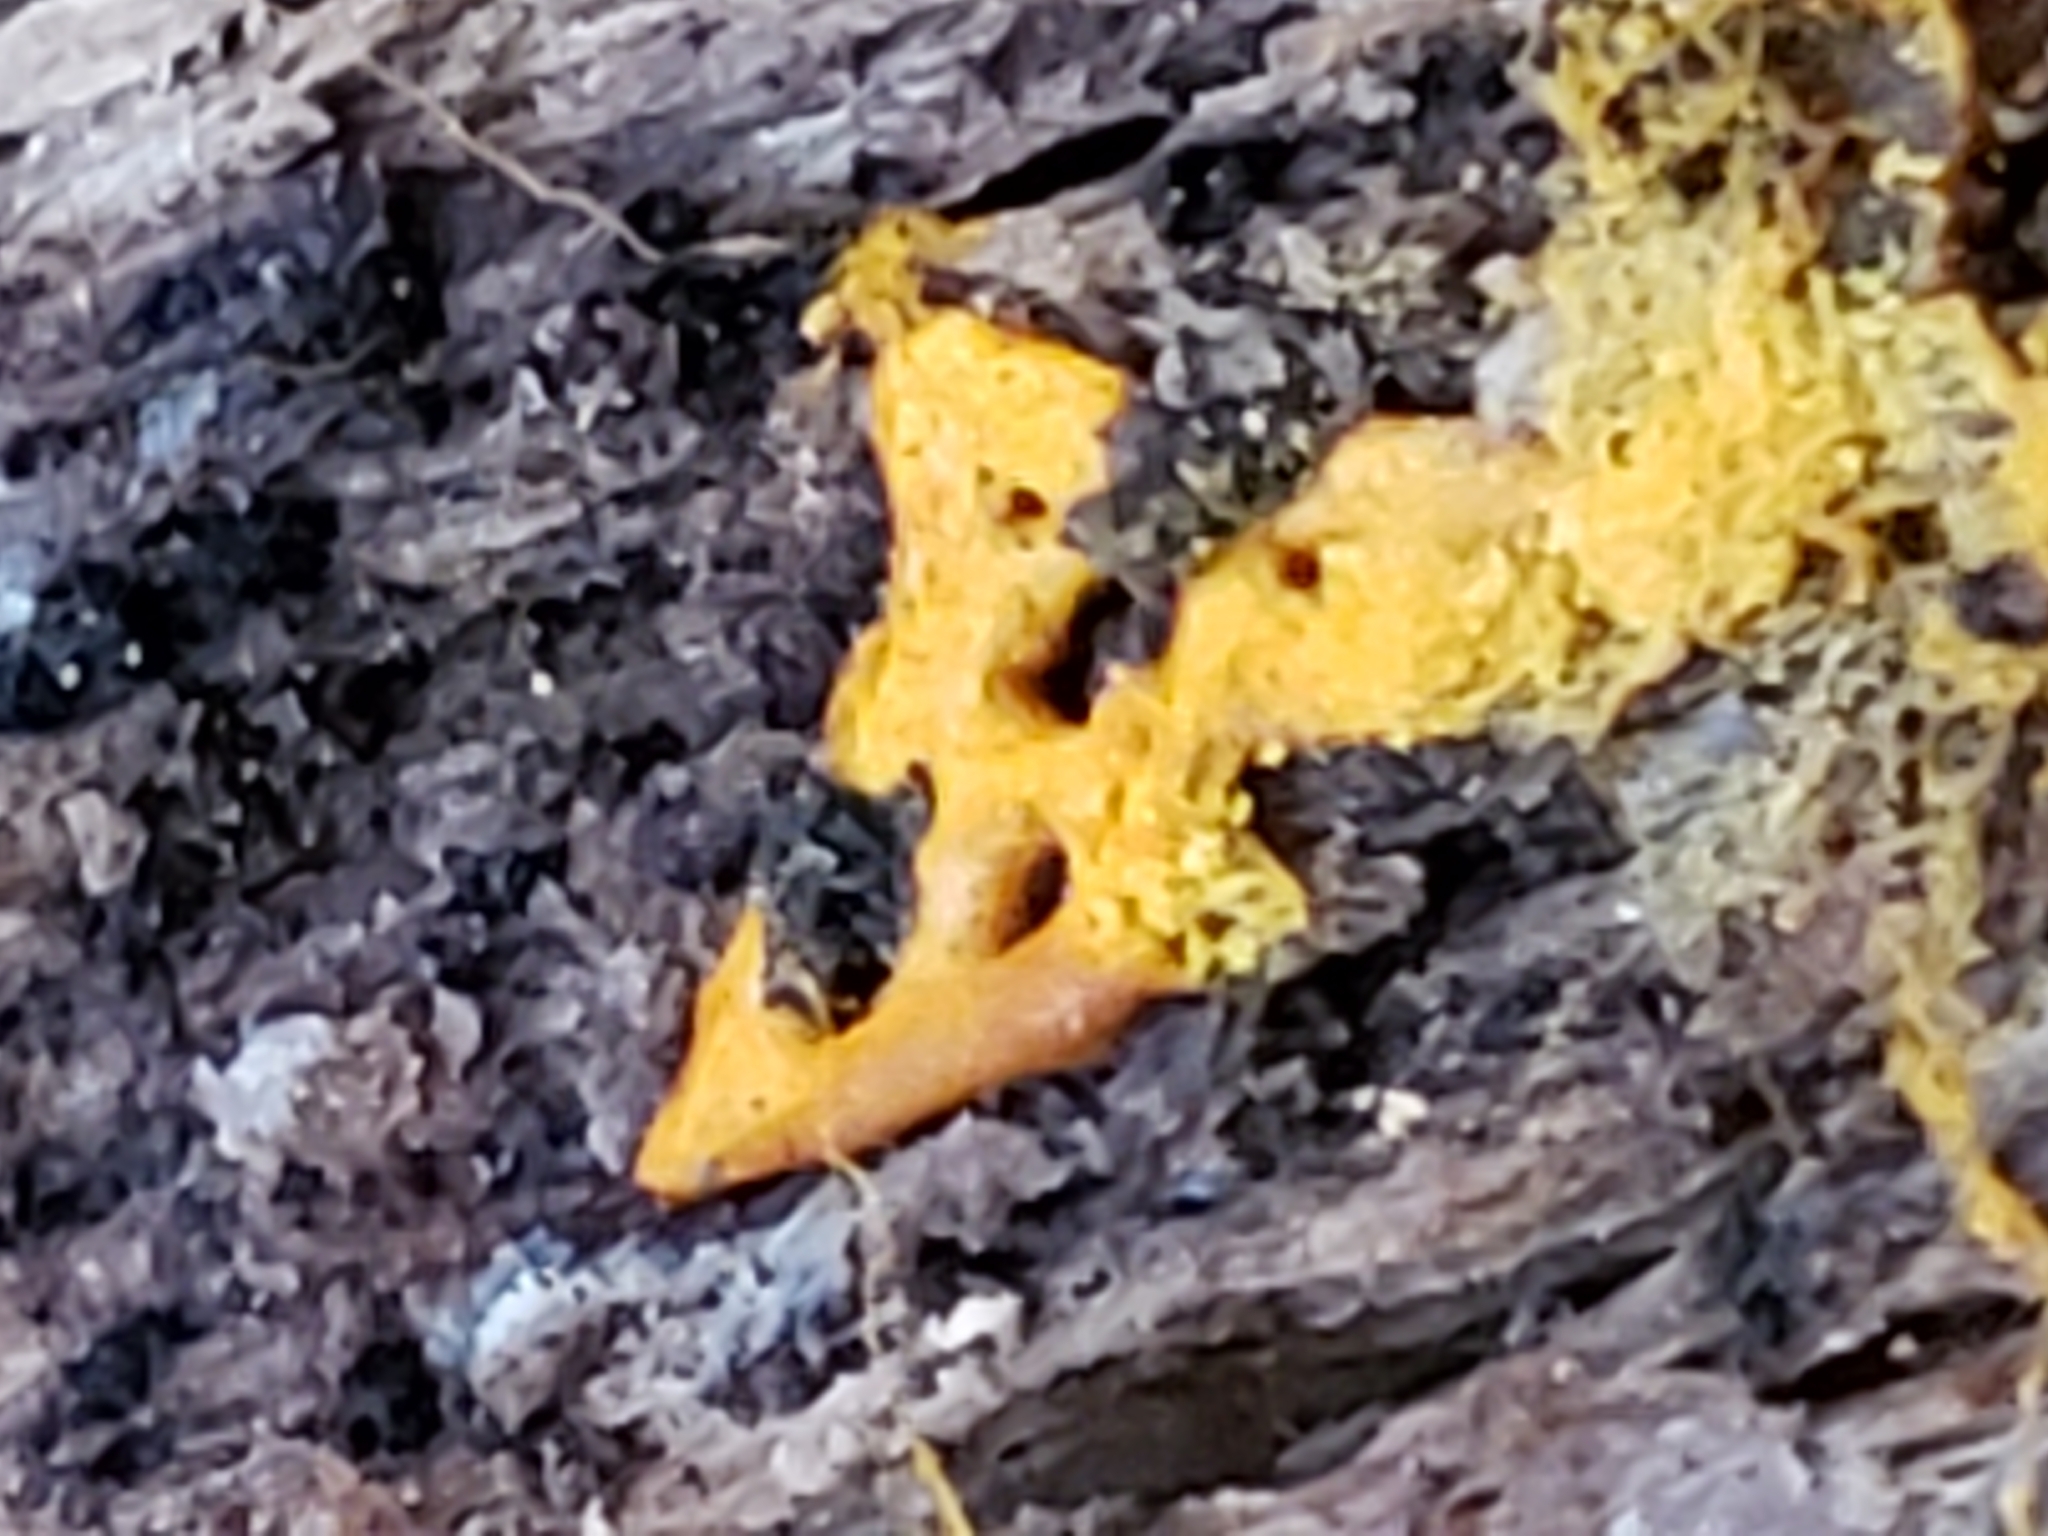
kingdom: Protozoa
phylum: Mycetozoa
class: Myxomycetes
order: Trichiales
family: Arcyriaceae
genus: Hemitrichia
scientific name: Hemitrichia serpula
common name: Pretzel slime mold
